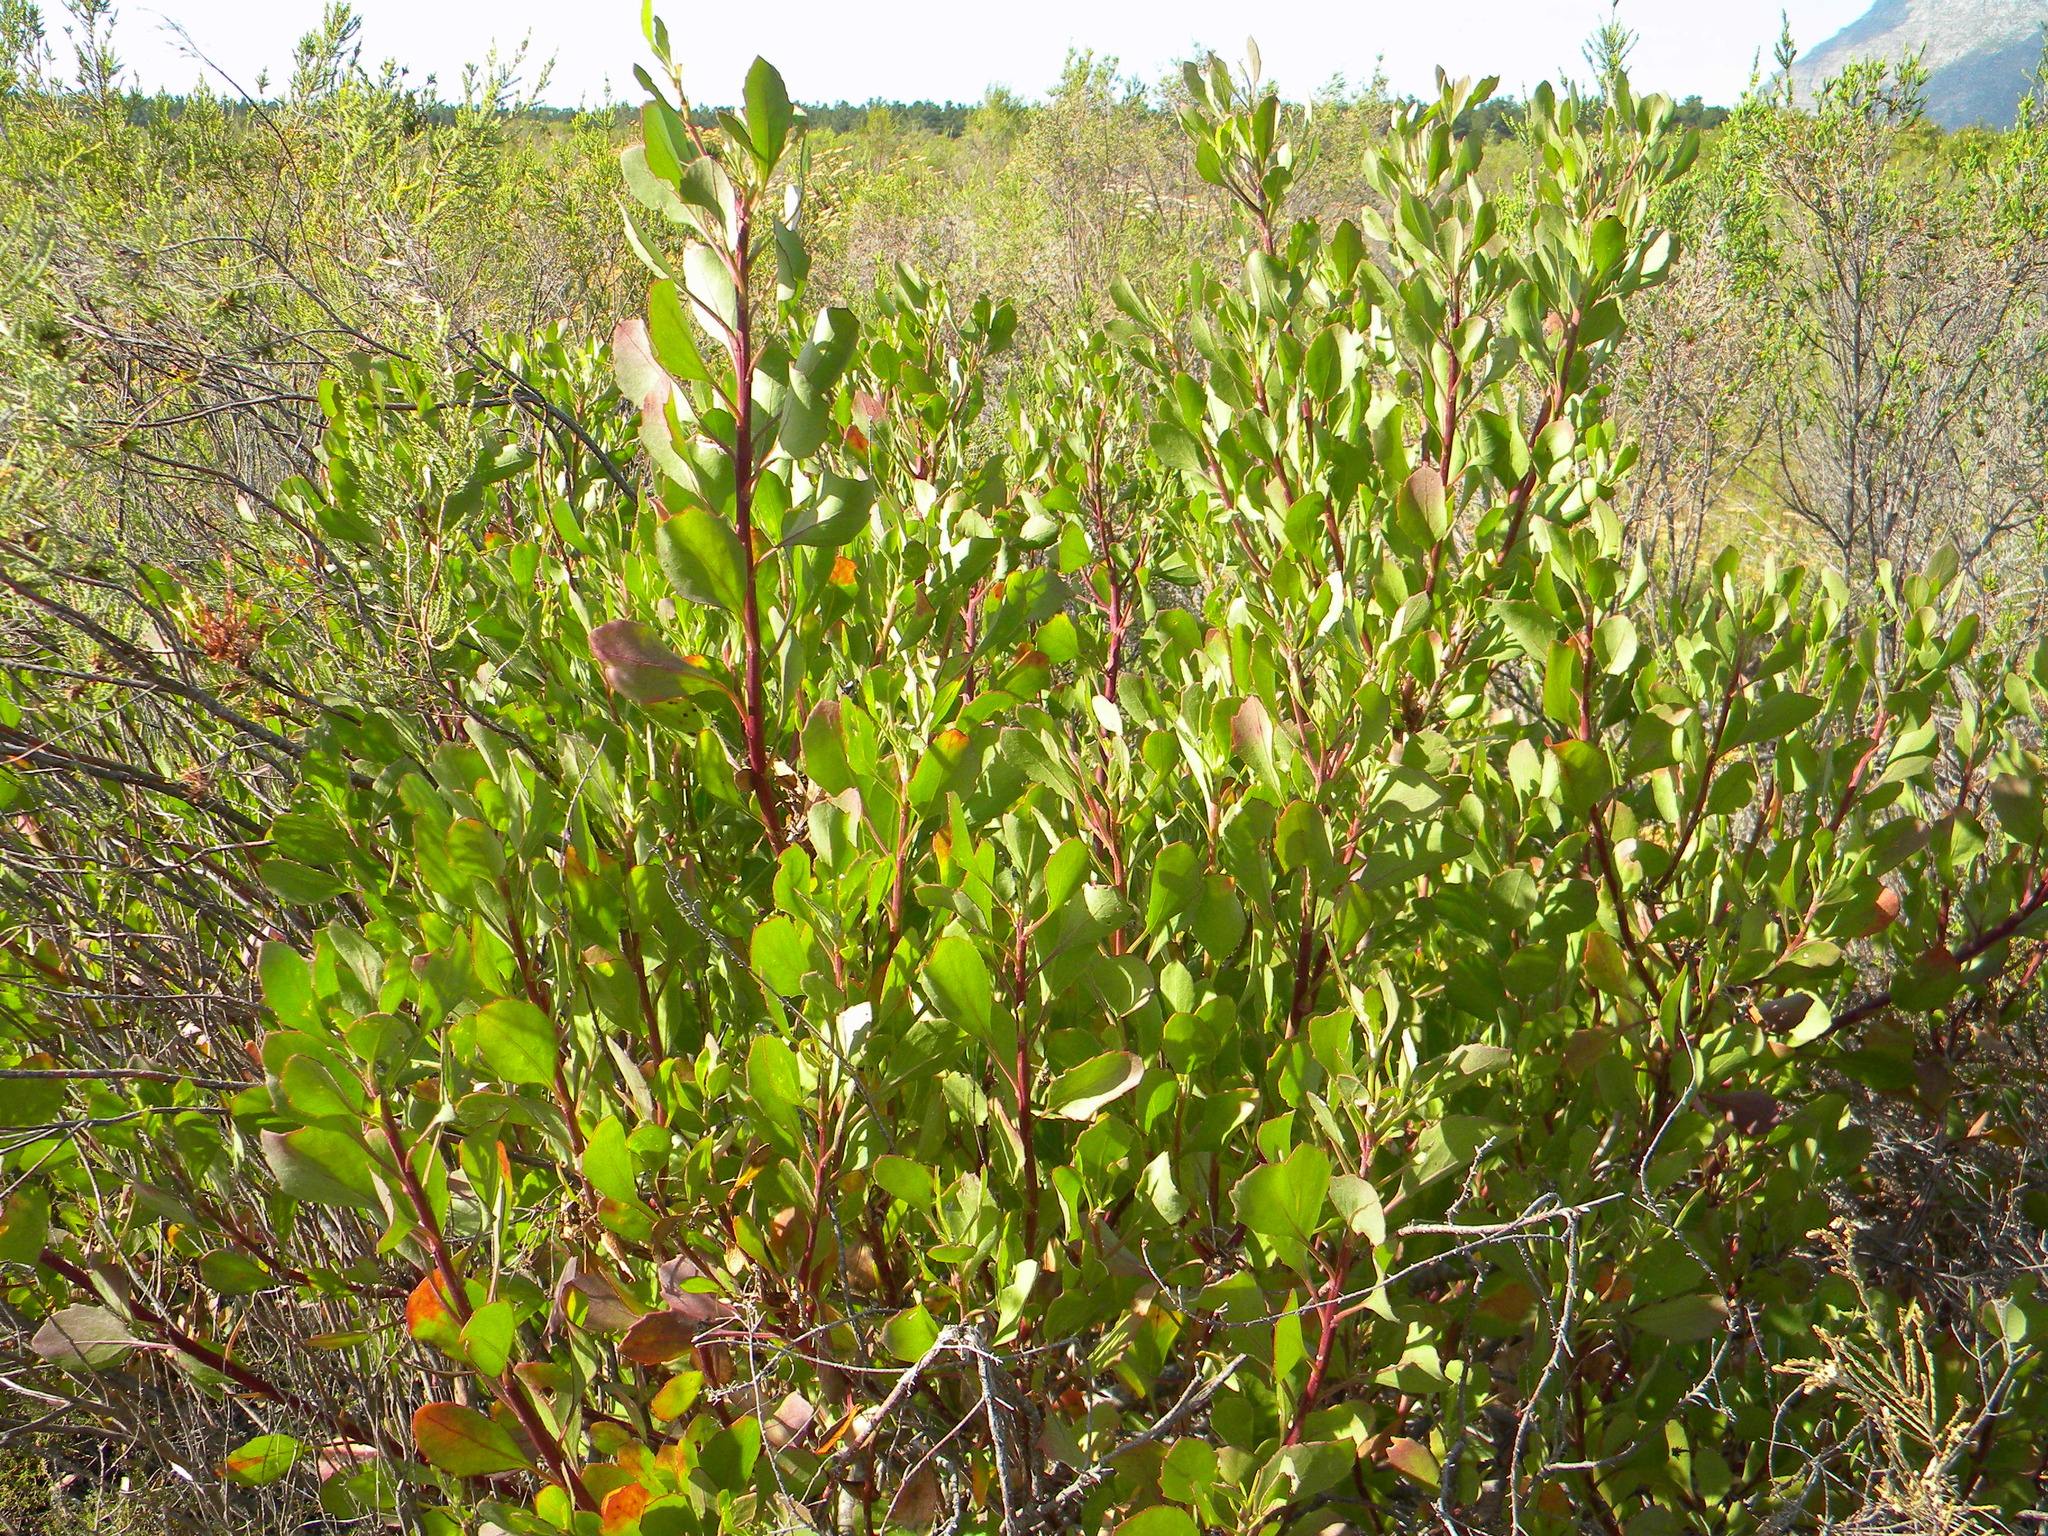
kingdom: Plantae
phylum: Tracheophyta
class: Magnoliopsida
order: Asterales
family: Asteraceae
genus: Osteospermum
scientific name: Osteospermum moniliferum
